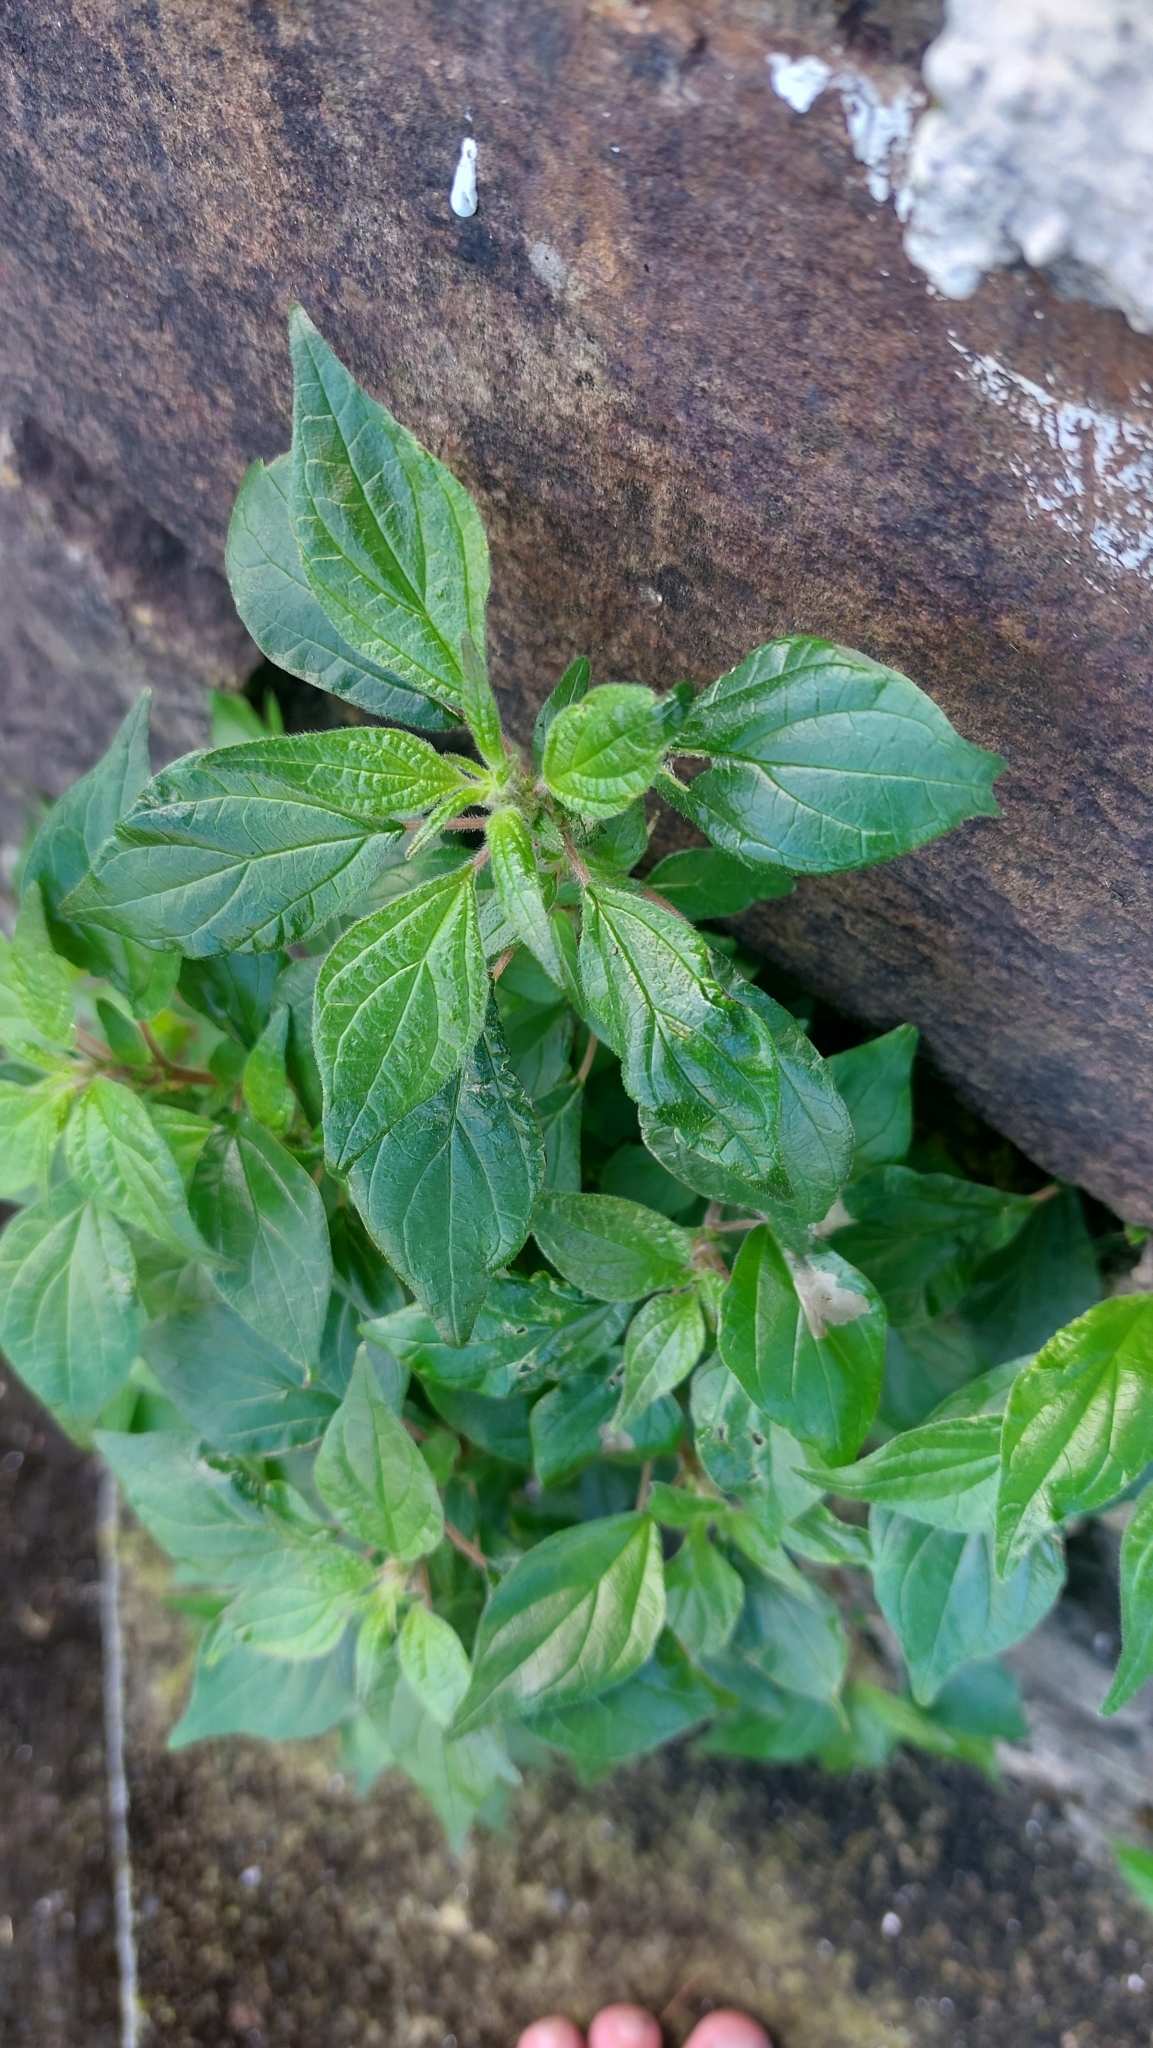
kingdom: Plantae
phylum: Tracheophyta
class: Magnoliopsida
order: Rosales
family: Urticaceae
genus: Parietaria
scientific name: Parietaria judaica
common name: Pellitory-of-the-wall
